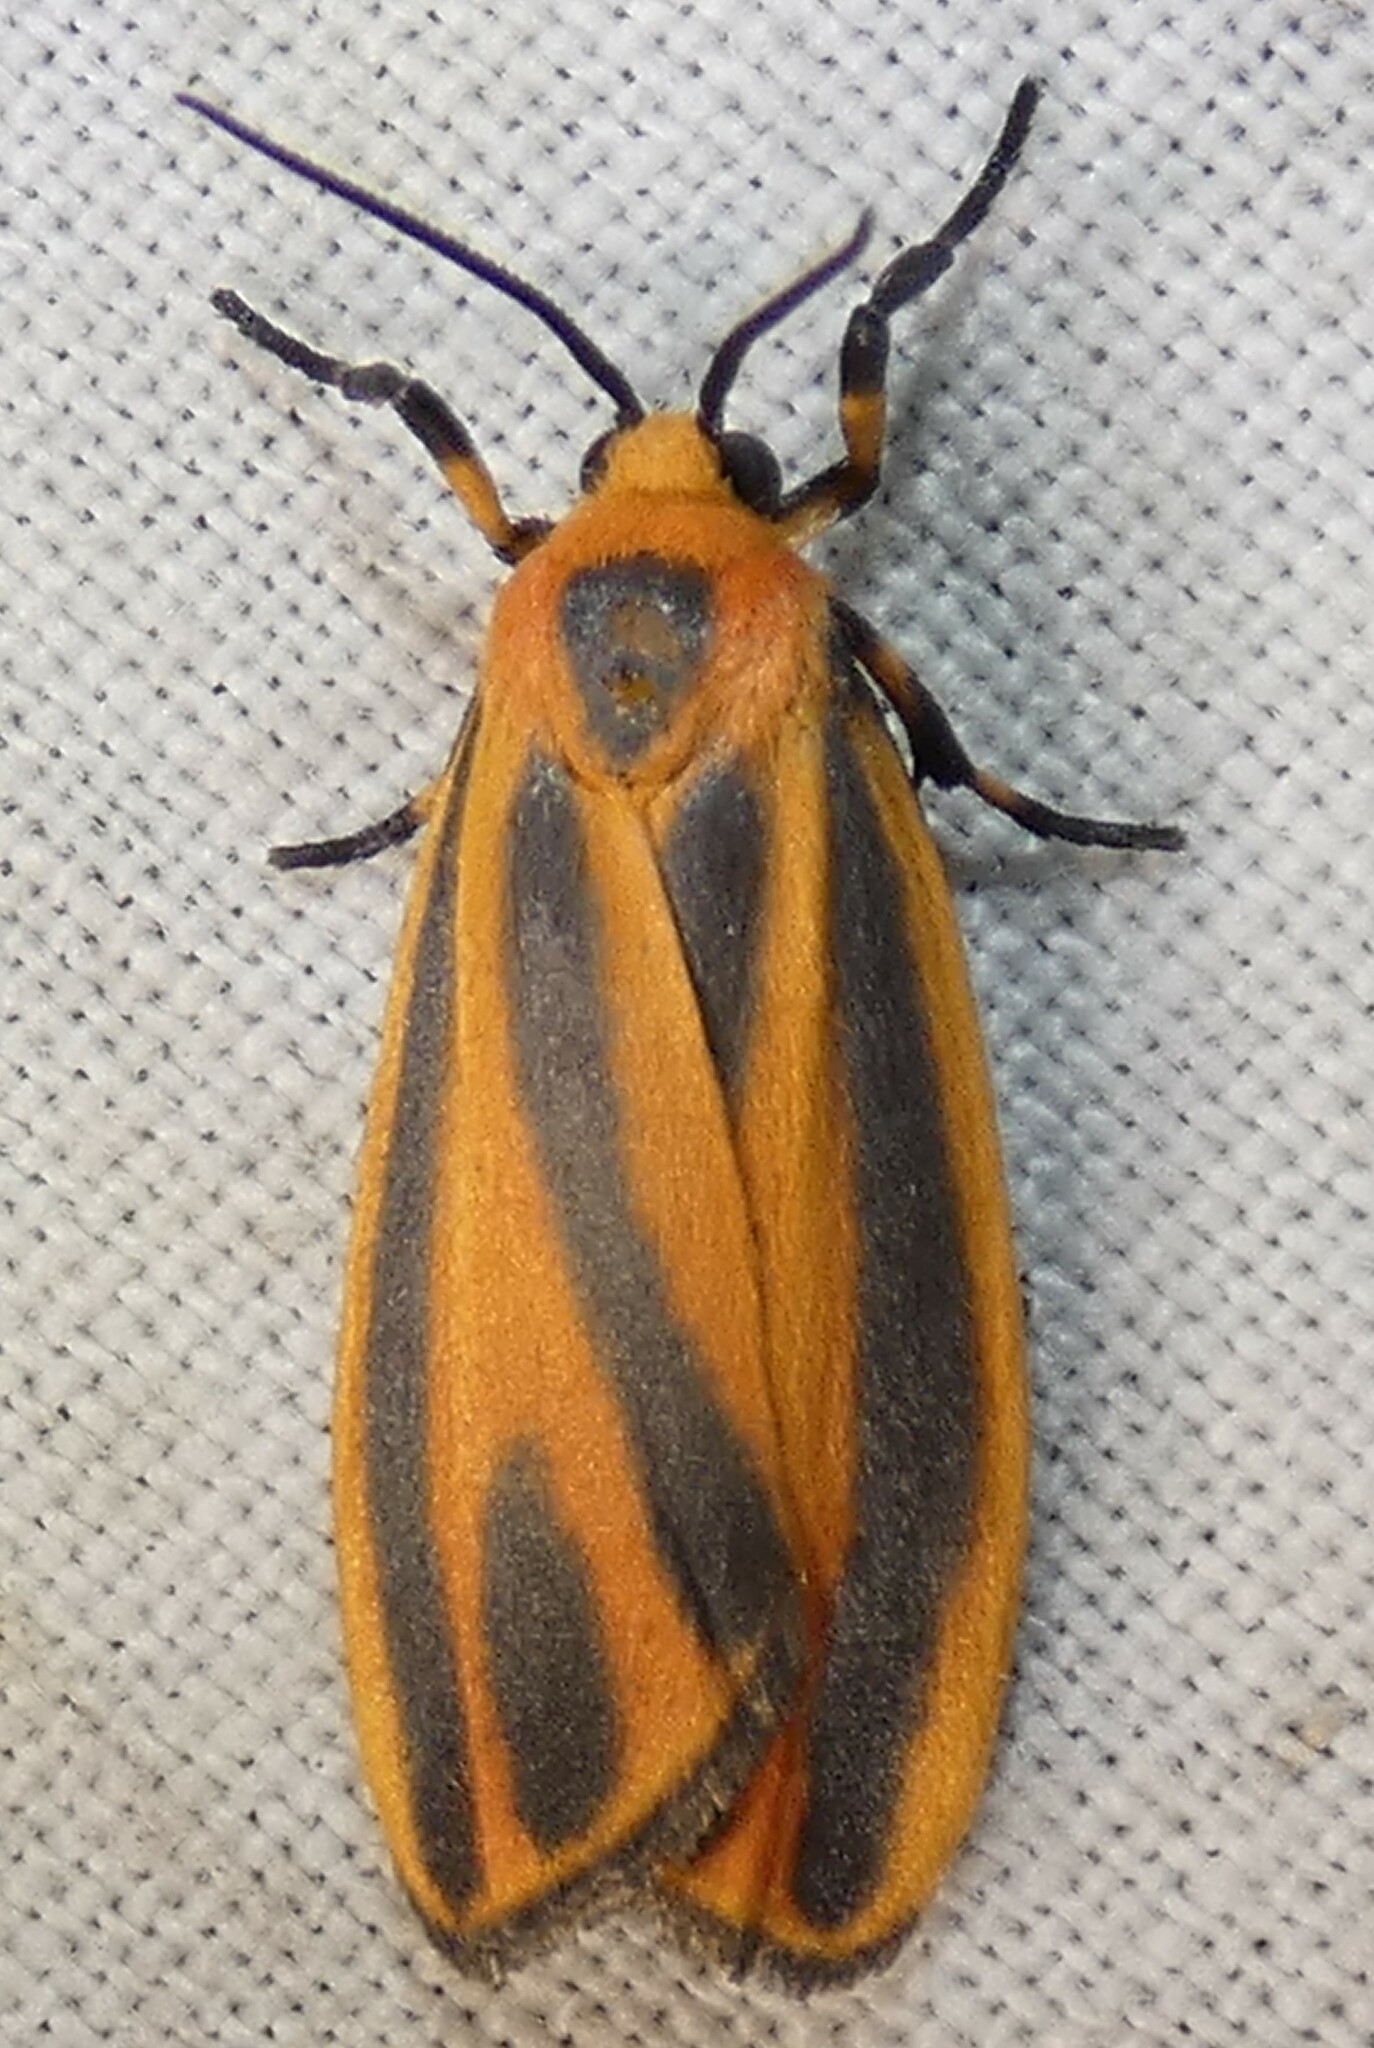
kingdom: Animalia
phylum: Arthropoda
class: Insecta
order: Lepidoptera
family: Erebidae
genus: Hypoprepia
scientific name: Hypoprepia fucosa
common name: Painted lichen moth
